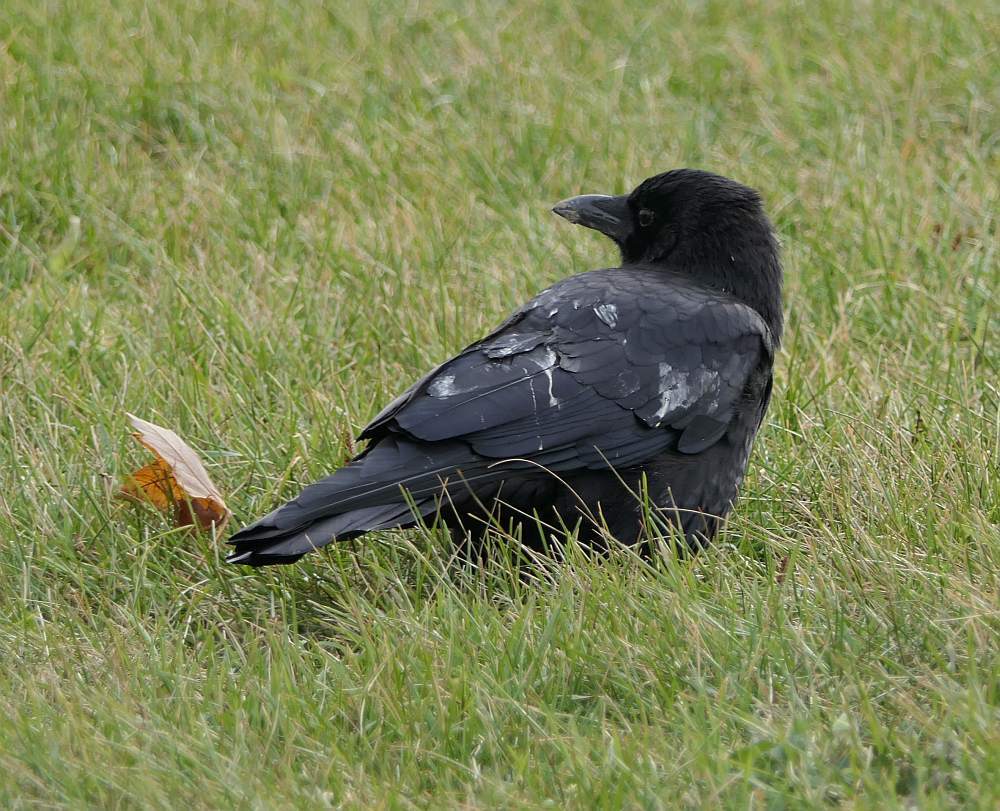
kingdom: Animalia
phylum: Chordata
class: Aves
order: Passeriformes
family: Corvidae
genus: Corvus
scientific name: Corvus brachyrhynchos
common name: American crow
